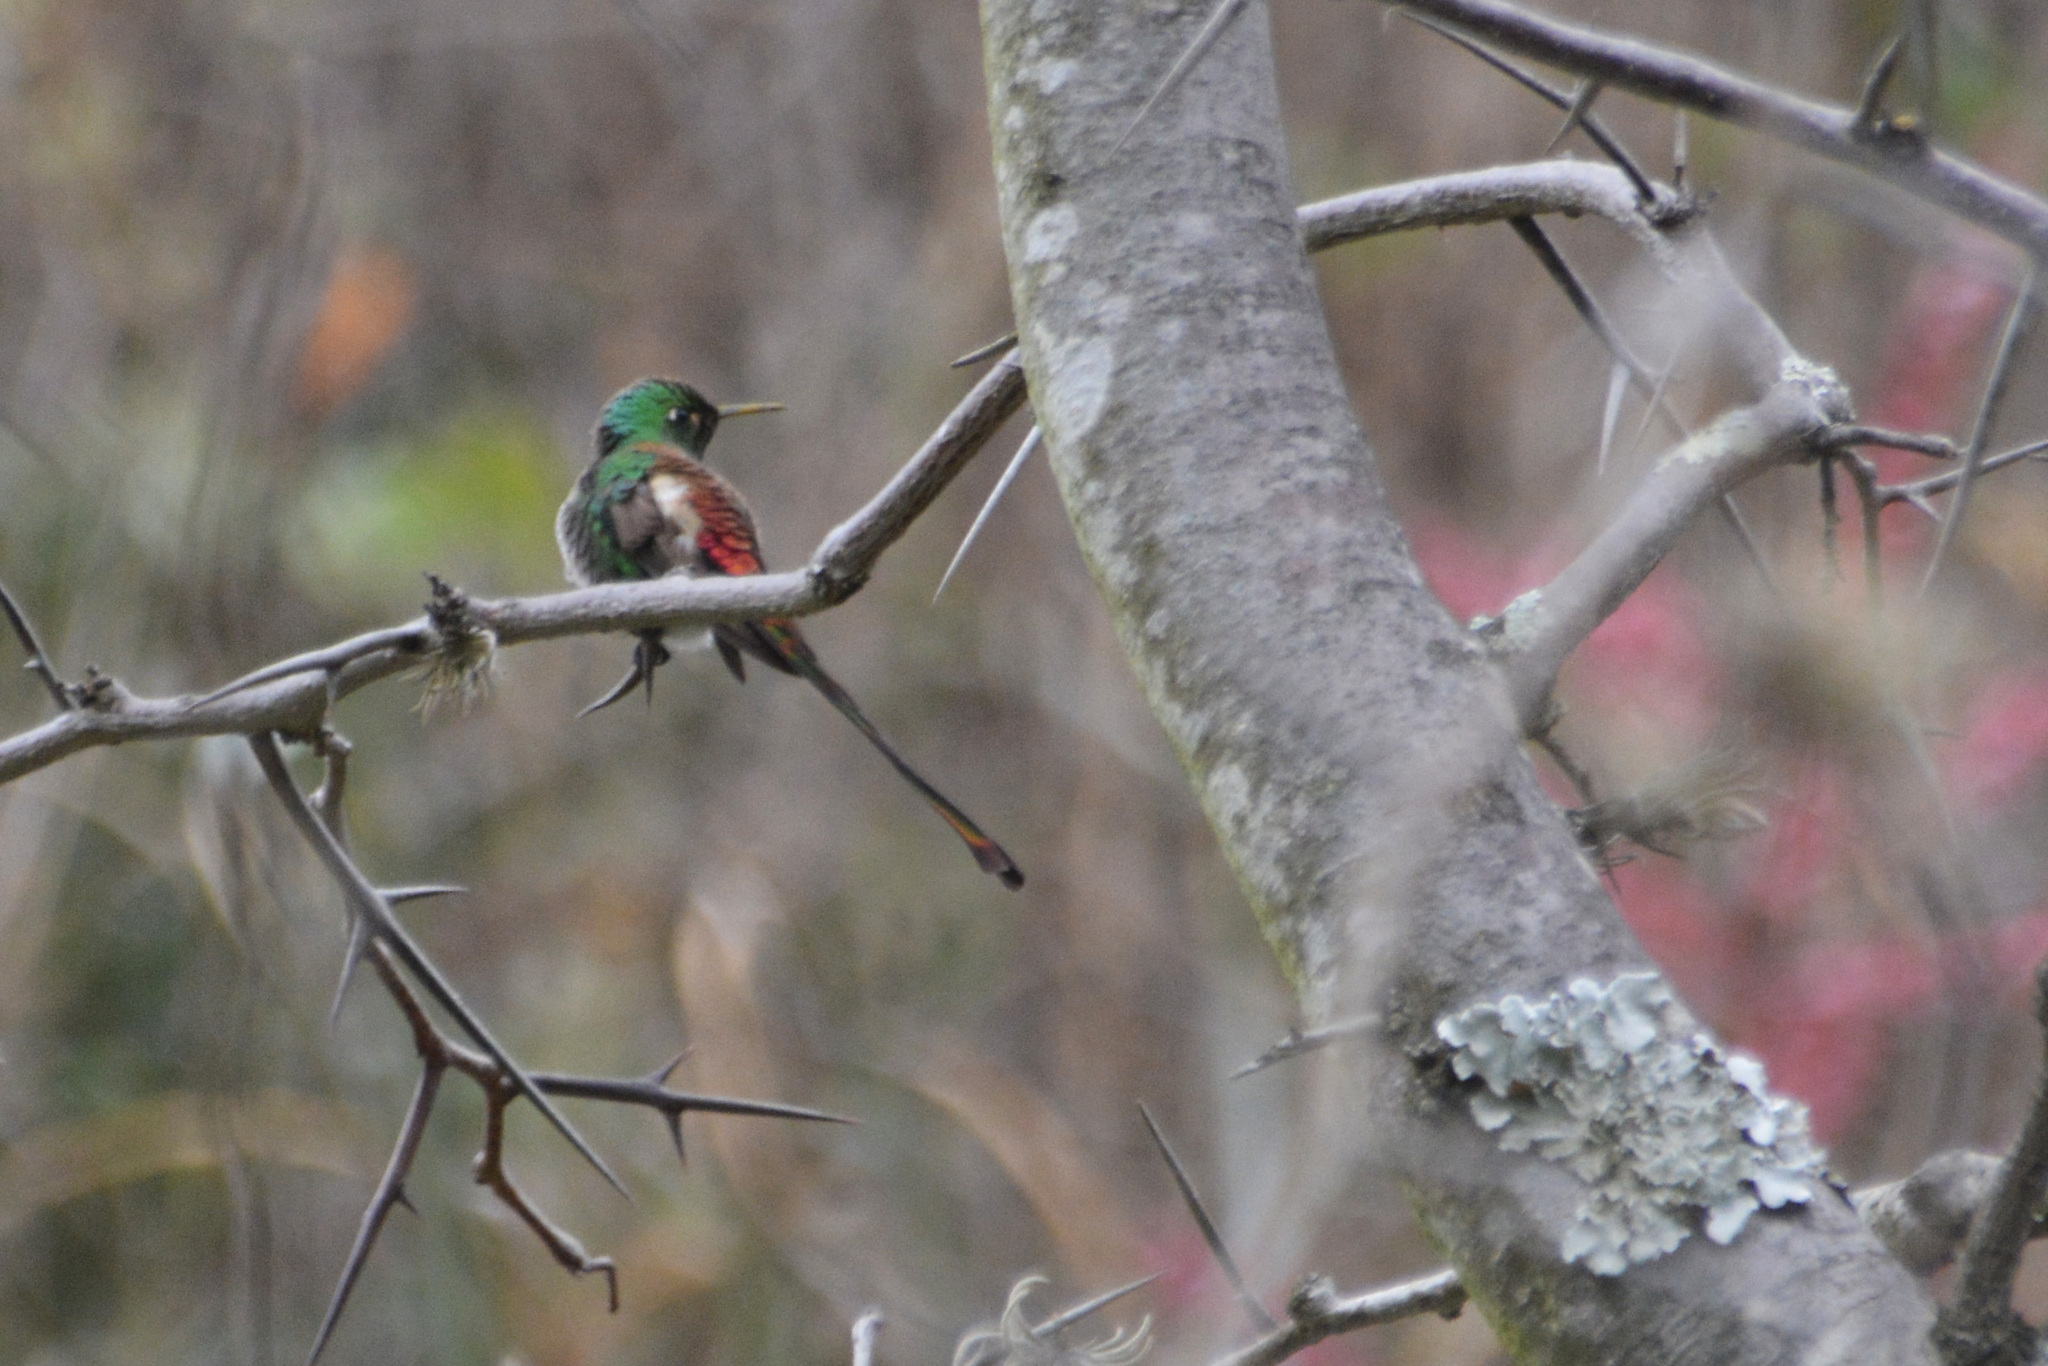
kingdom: Animalia
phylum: Chordata
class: Aves
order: Apodiformes
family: Trochilidae
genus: Sappho
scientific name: Sappho sparganurus
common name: Red-tailed comet
